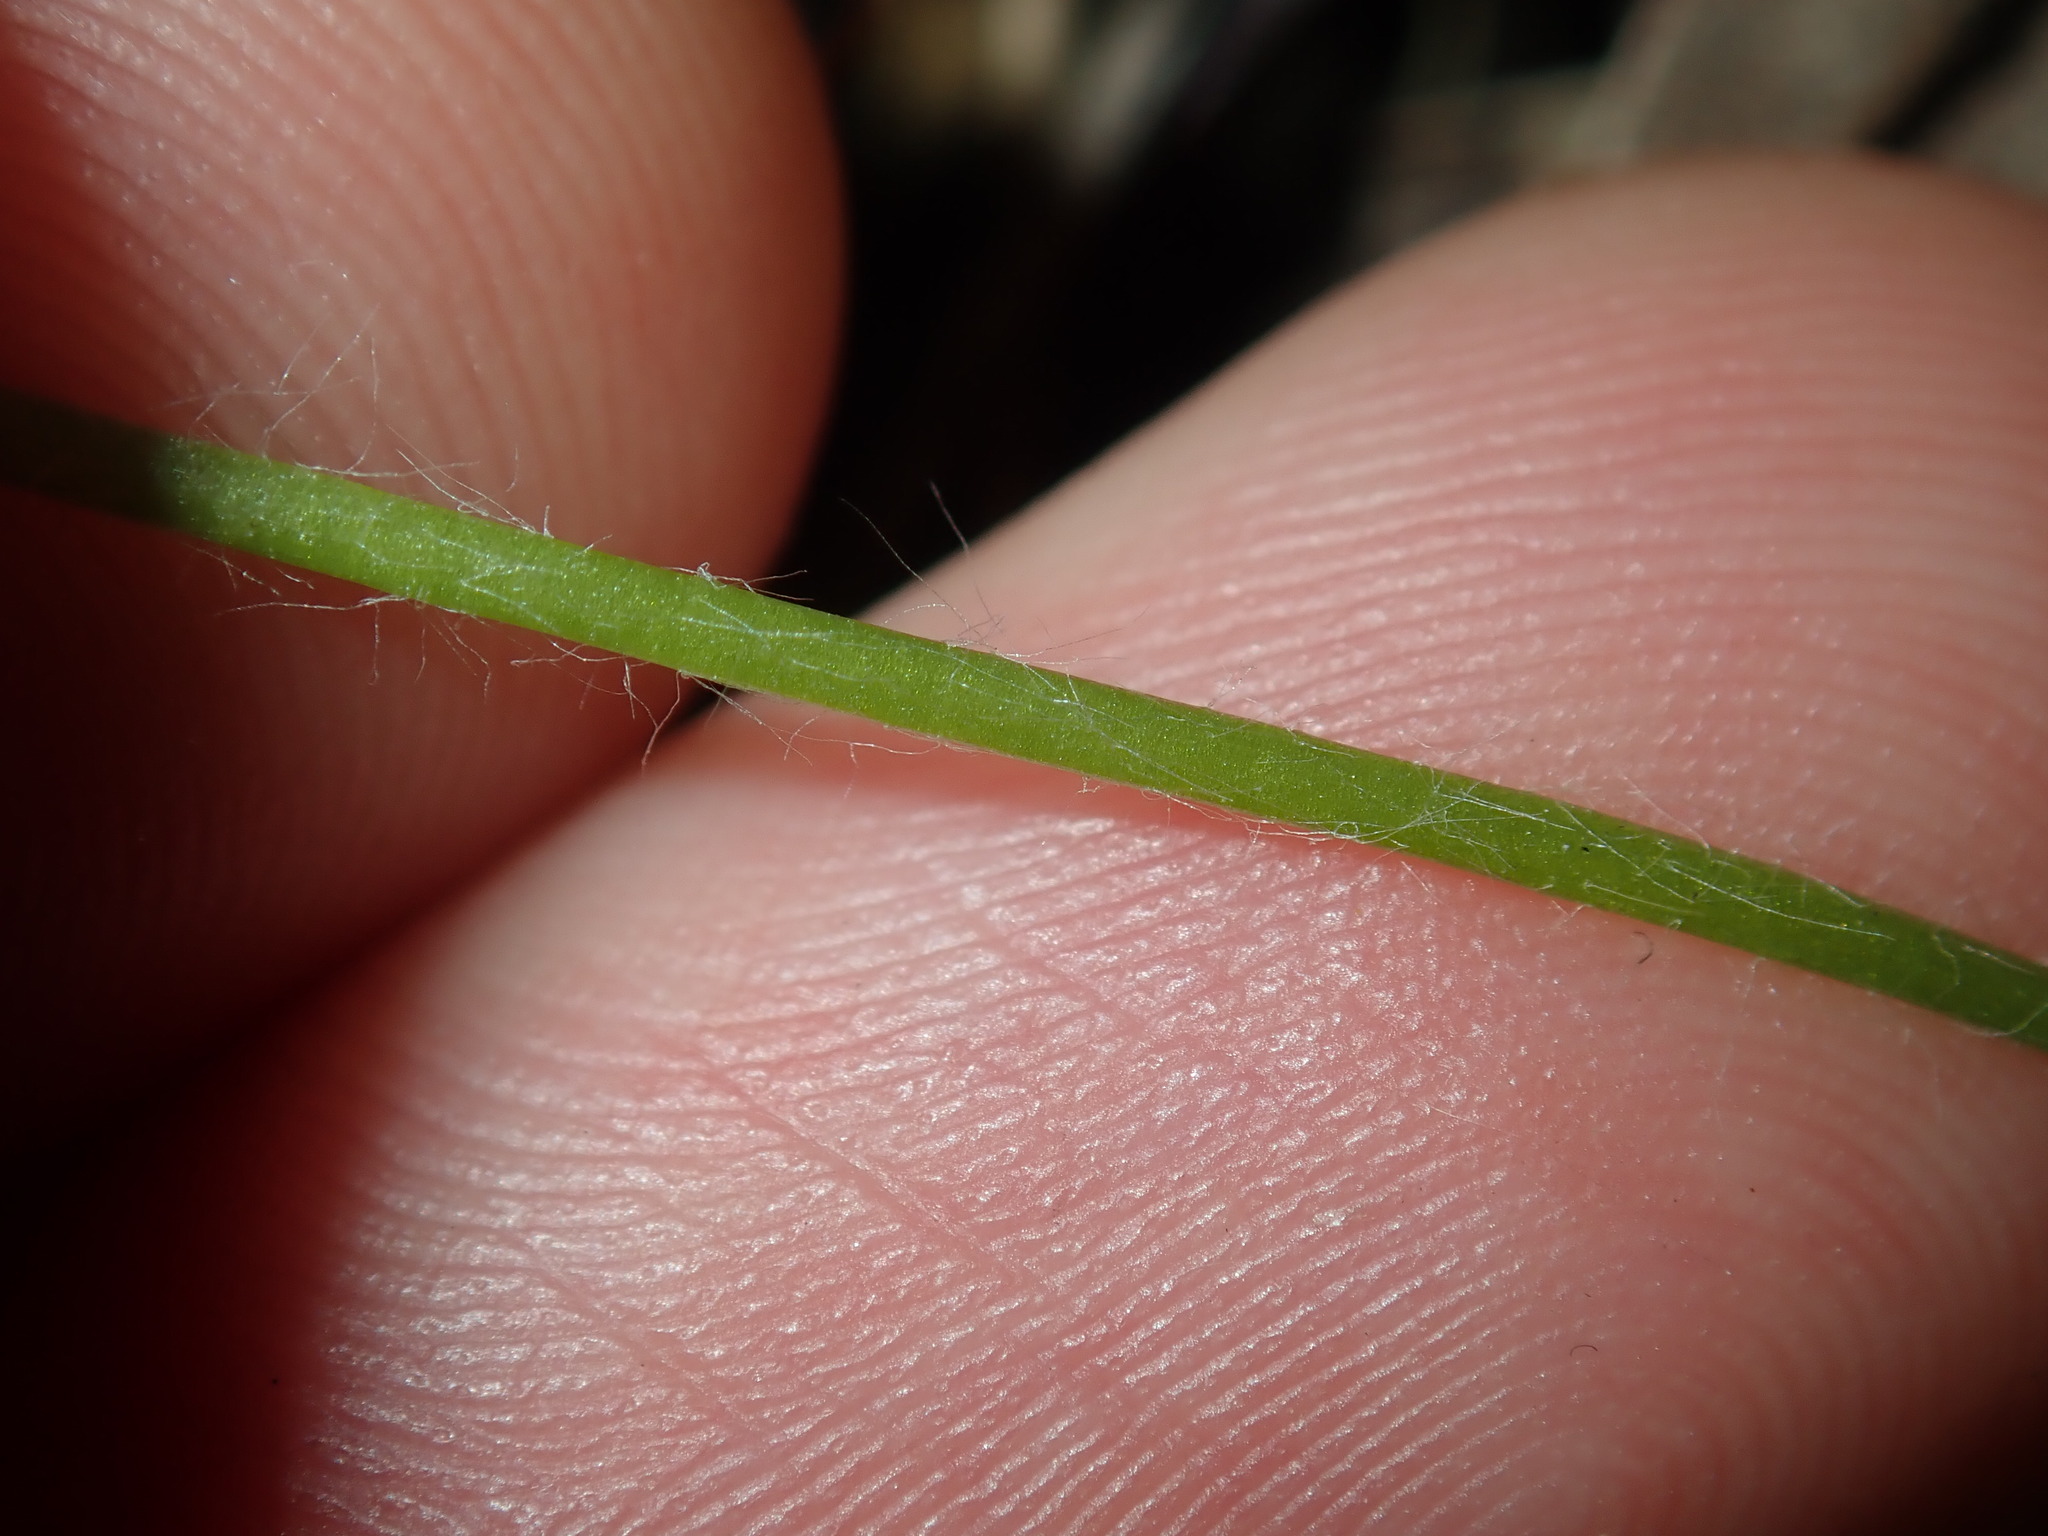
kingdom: Plantae
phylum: Tracheophyta
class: Liliopsida
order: Asparagales
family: Hypoxidaceae
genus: Hypoxis
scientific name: Hypoxis hygrometrica
